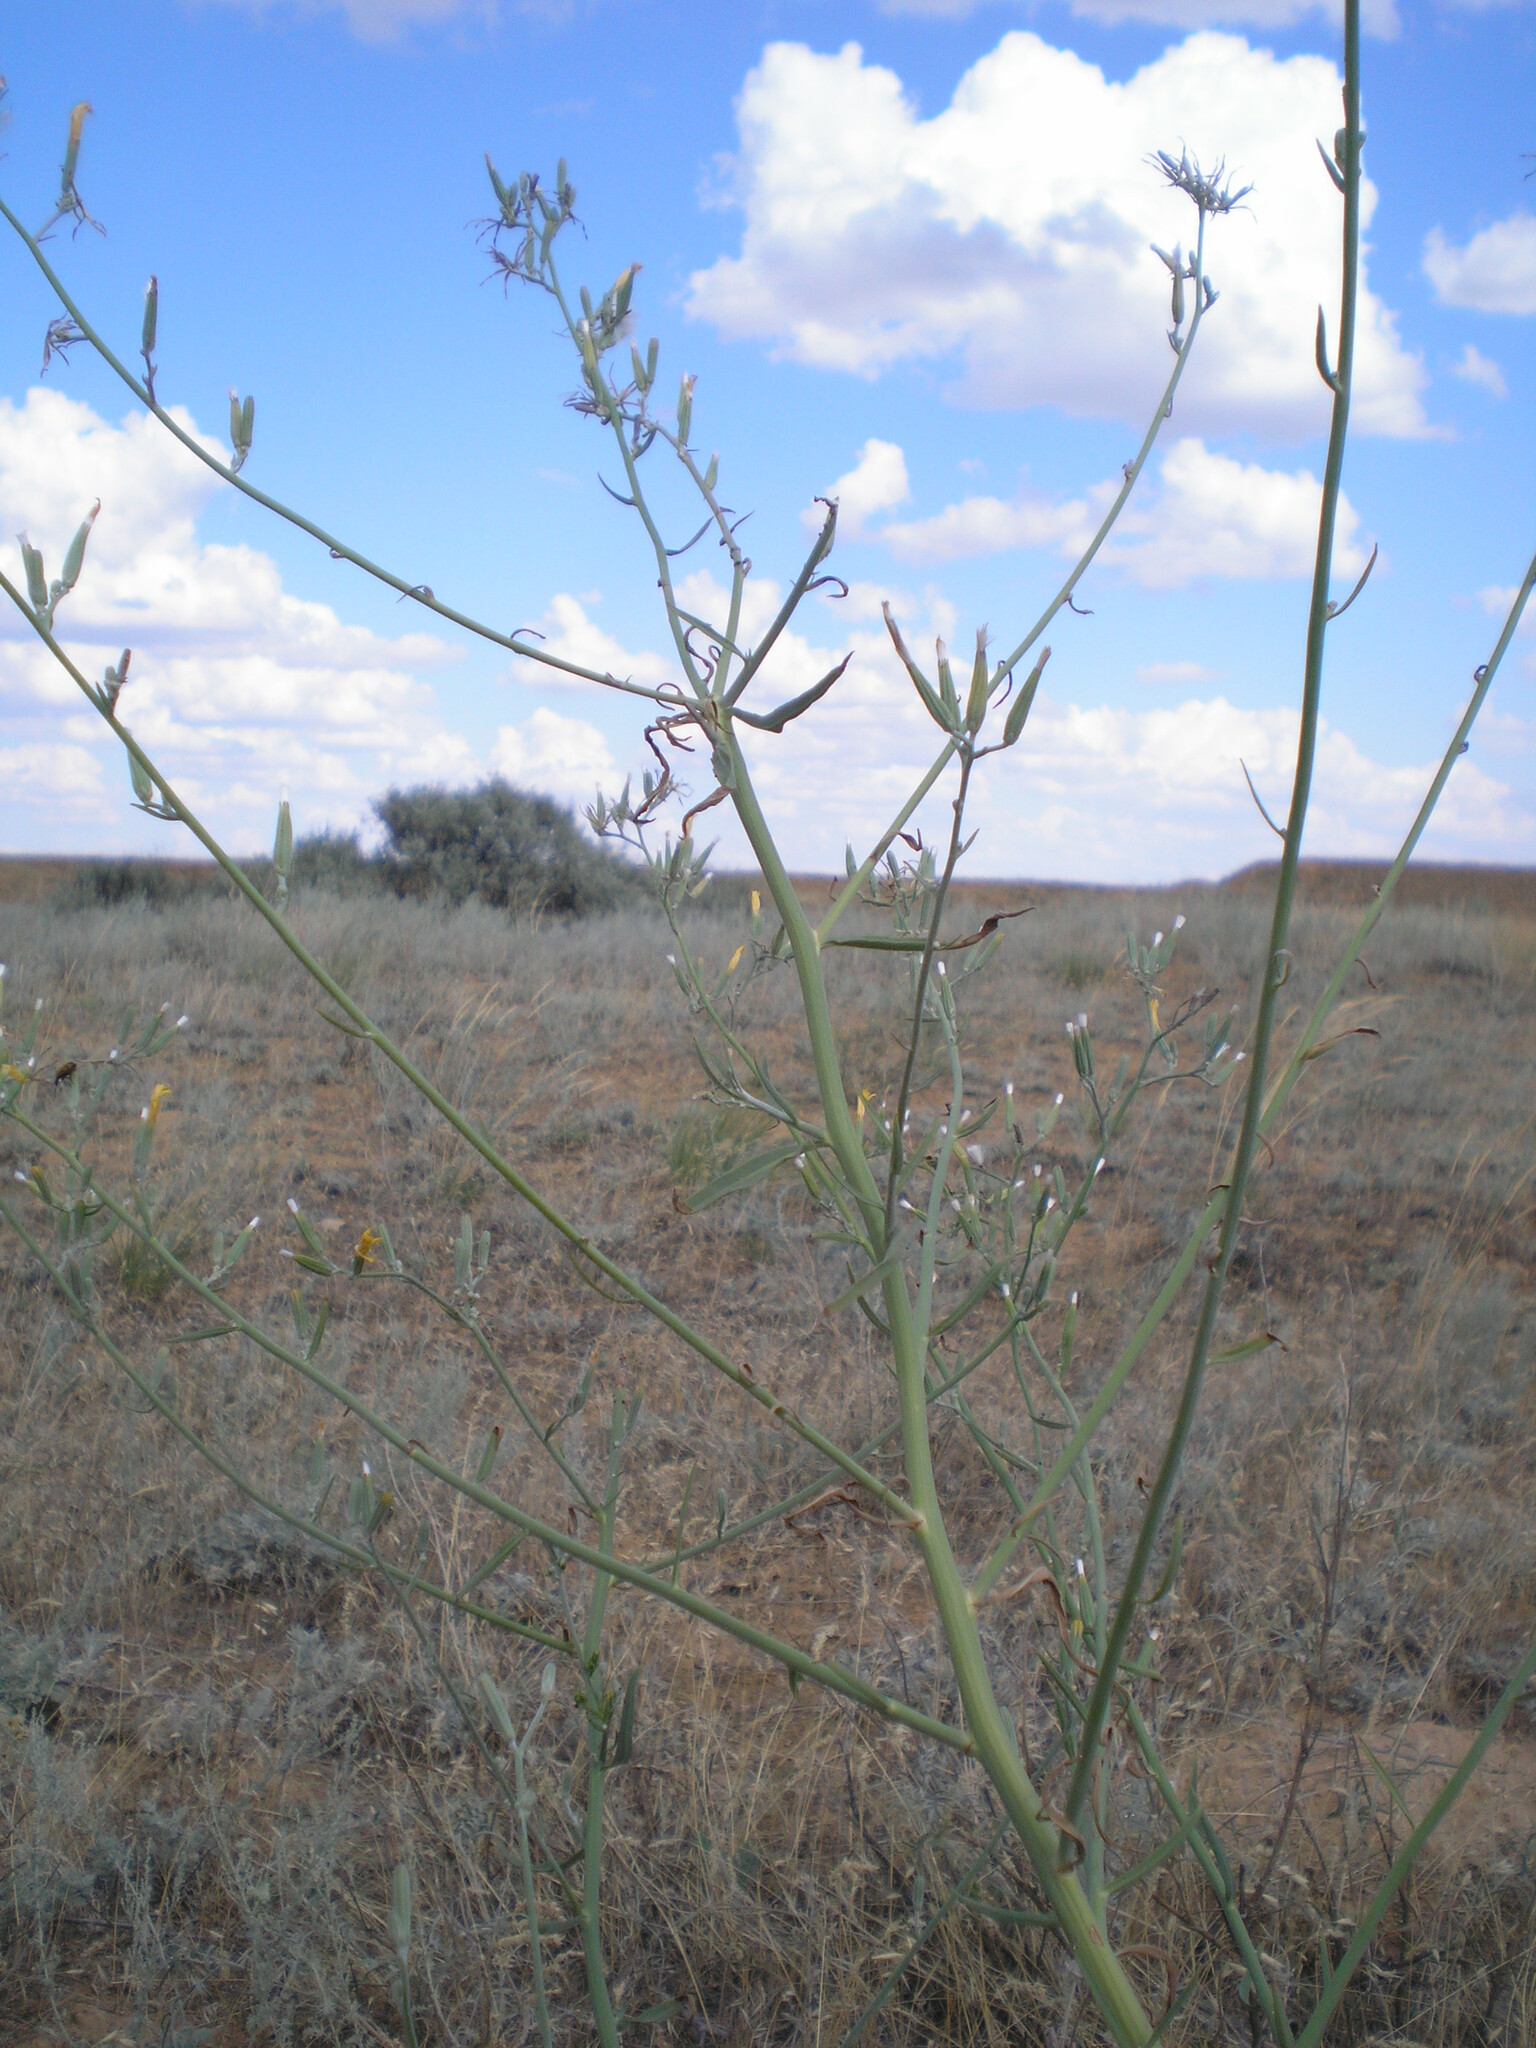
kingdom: Plantae
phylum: Tracheophyta
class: Magnoliopsida
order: Asterales
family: Asteraceae
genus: Chondrilla
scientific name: Chondrilla juncea
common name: Skeleton weed
